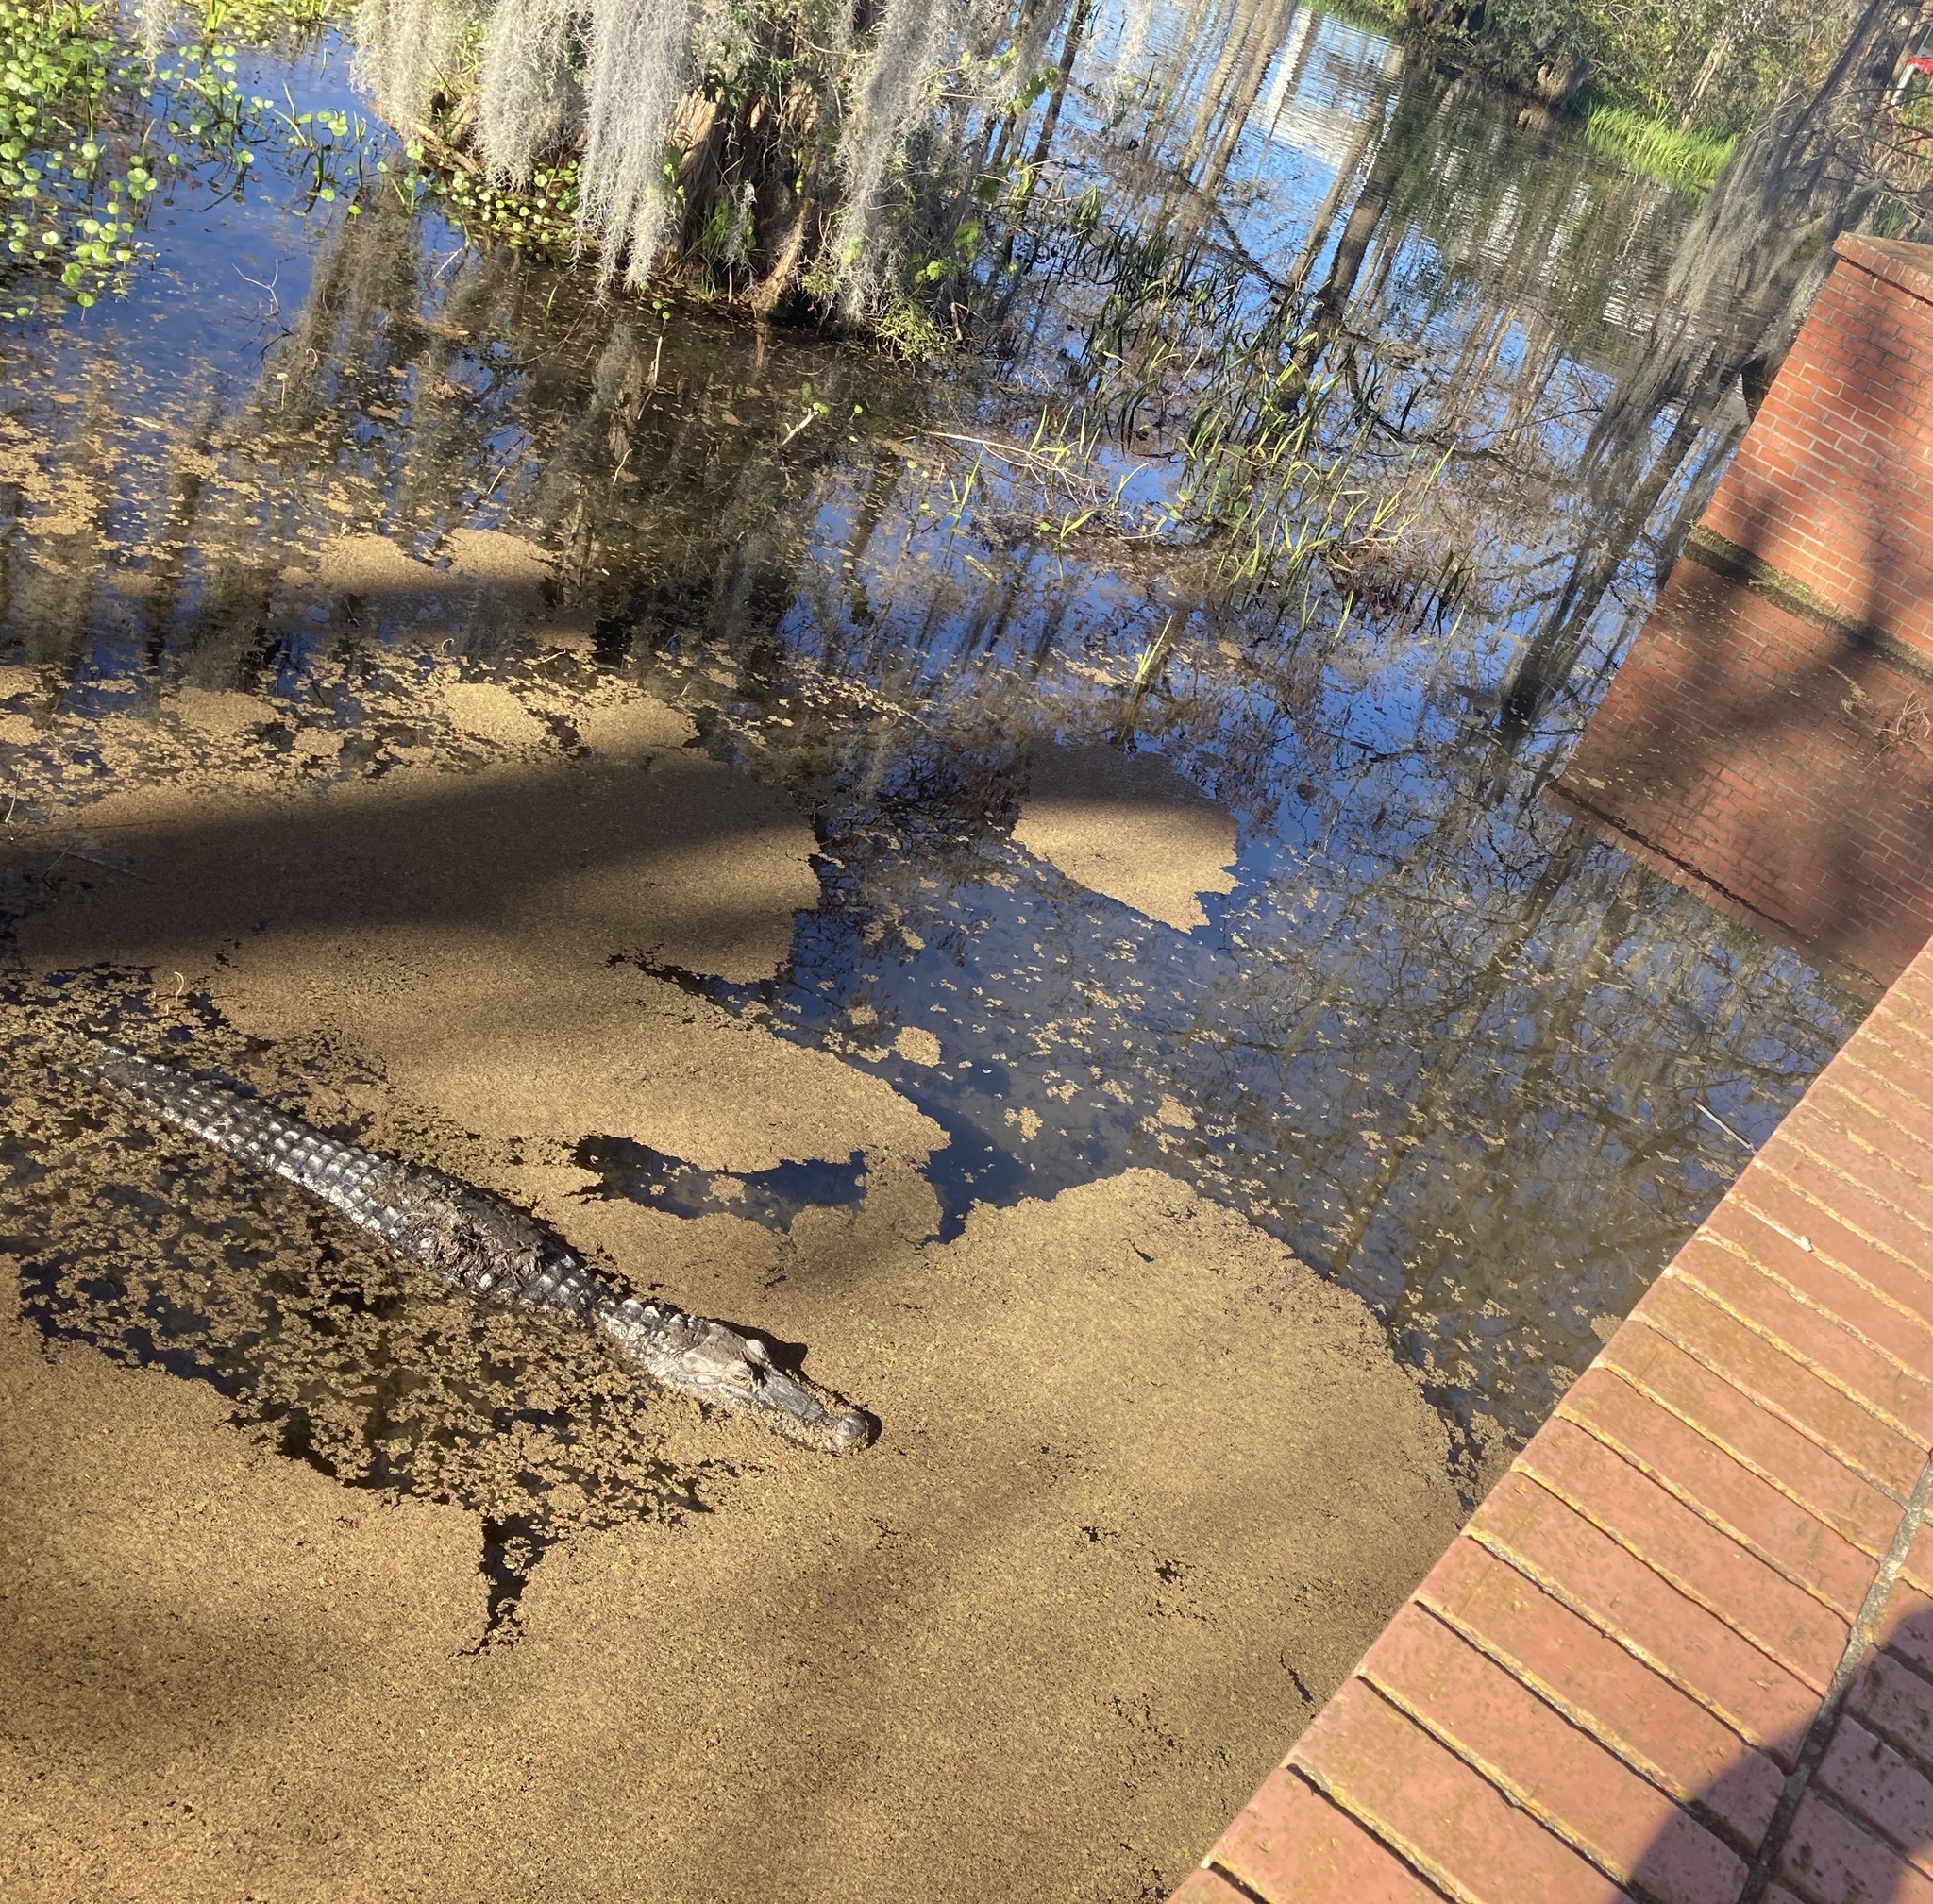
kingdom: Animalia
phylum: Chordata
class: Crocodylia
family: Alligatoridae
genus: Alligator
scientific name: Alligator mississippiensis
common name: American alligator
